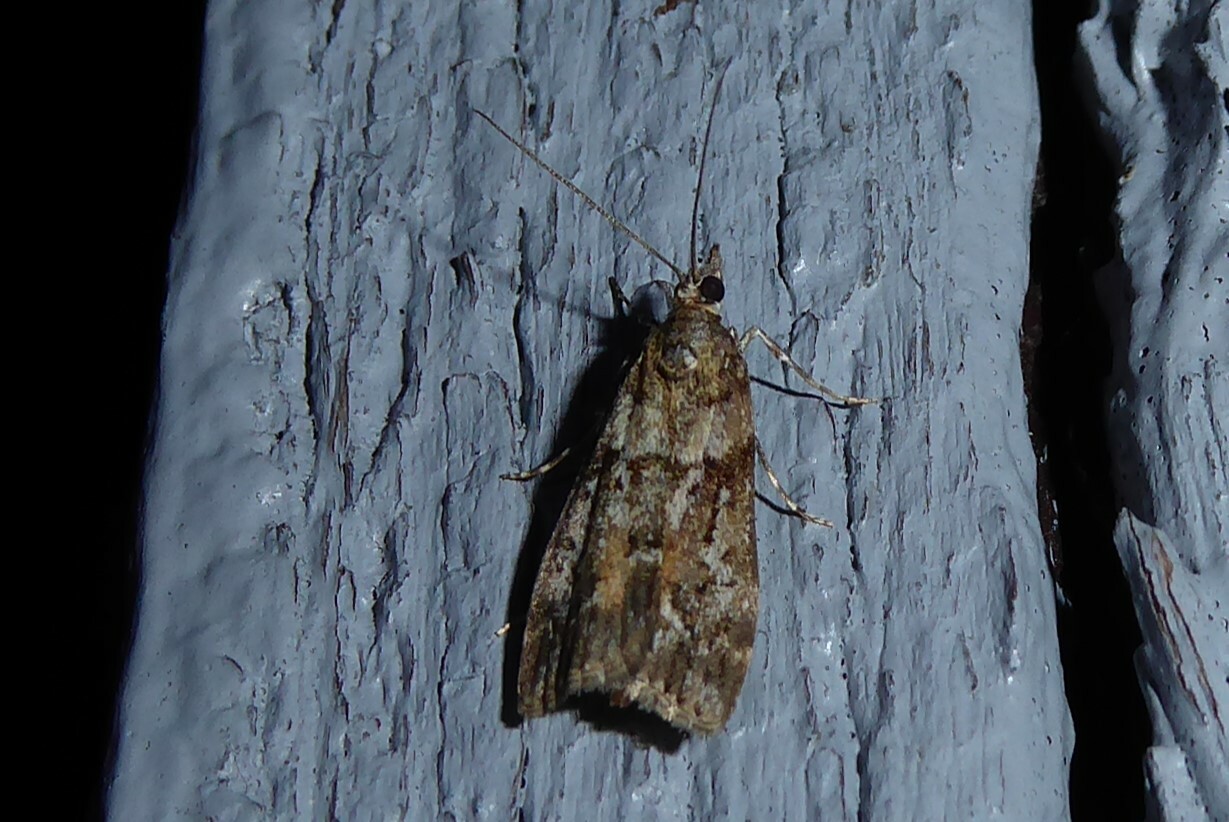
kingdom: Animalia
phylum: Arthropoda
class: Insecta
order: Lepidoptera
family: Crambidae
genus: Eudonia
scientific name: Eudonia submarginalis
